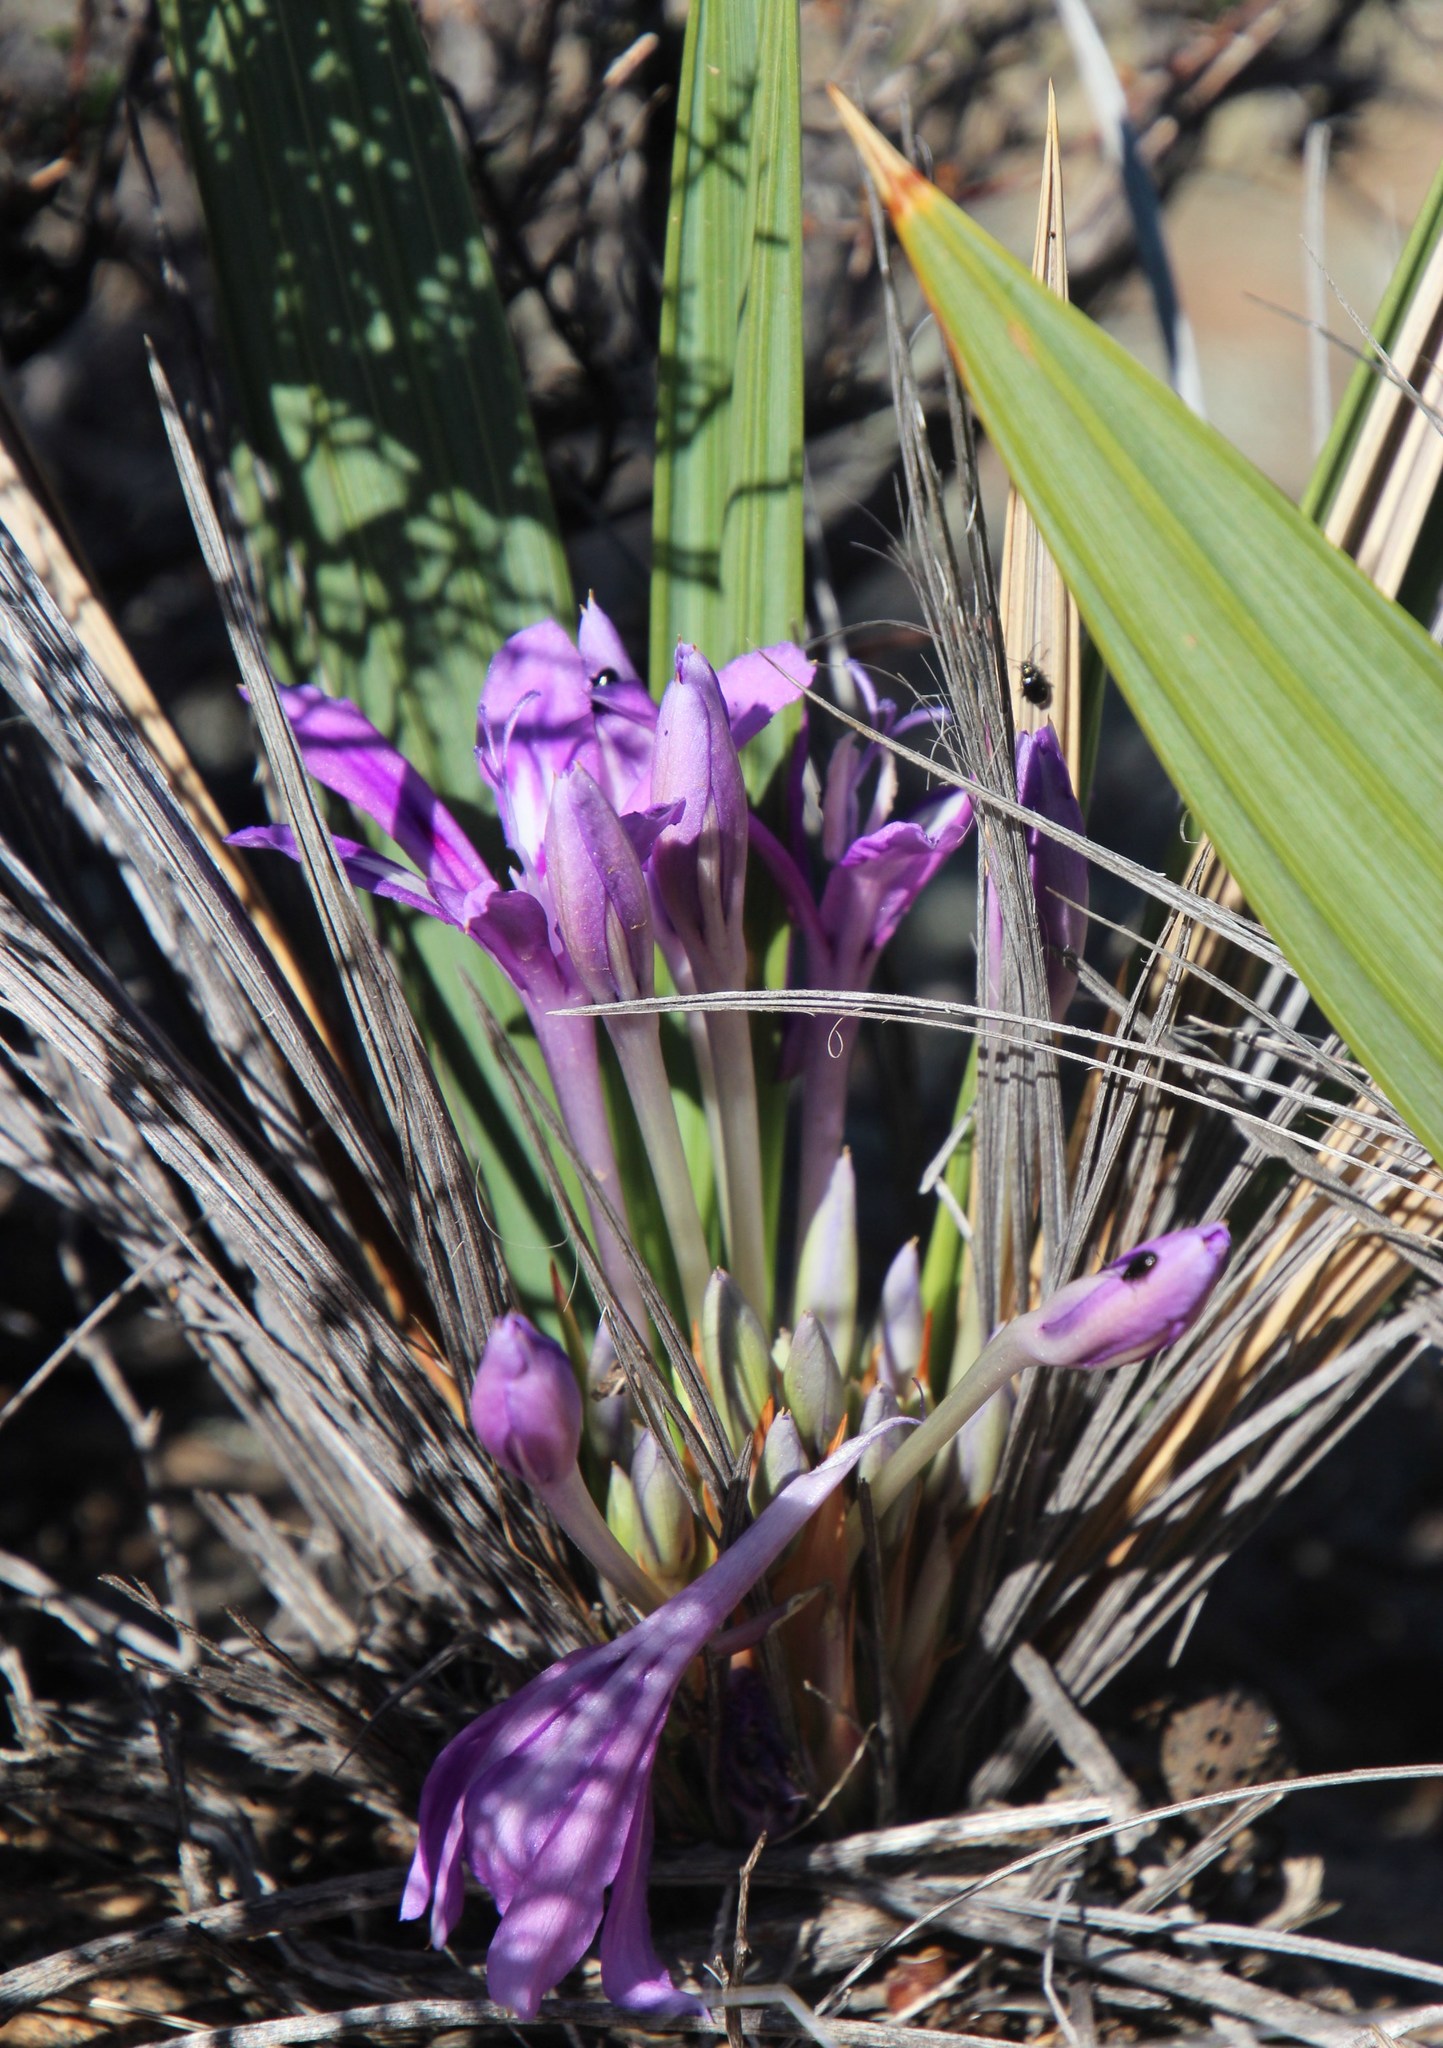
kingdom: Plantae
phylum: Tracheophyta
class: Liliopsida
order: Asparagales
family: Iridaceae
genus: Babiana
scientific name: Babiana dregei
